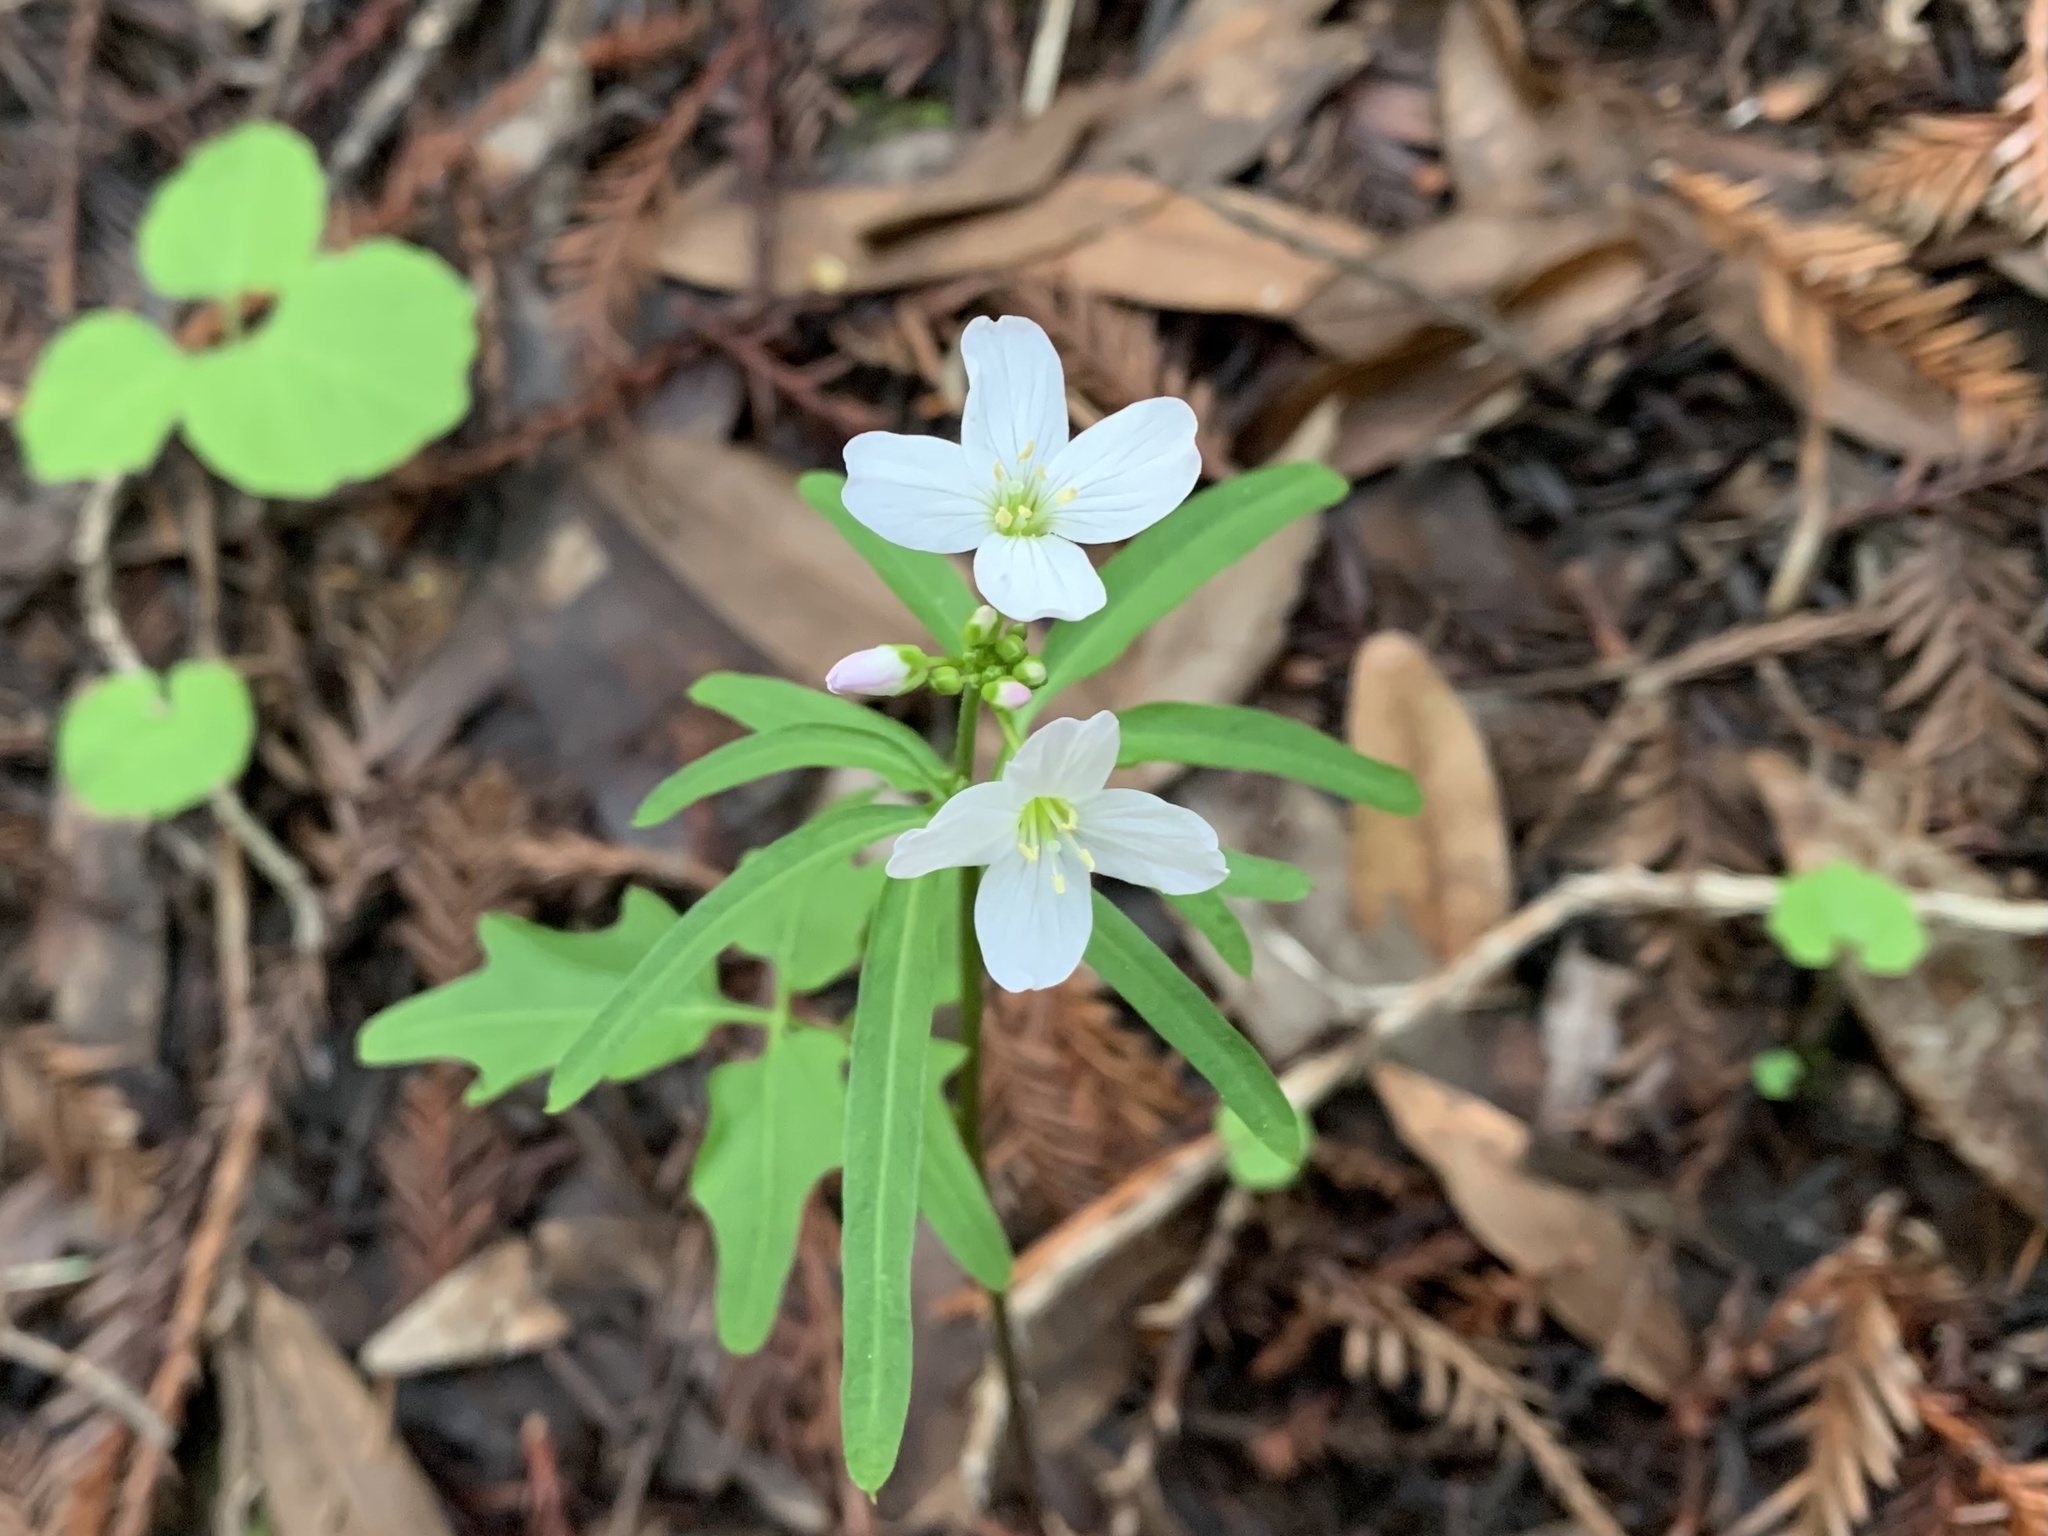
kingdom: Plantae
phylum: Tracheophyta
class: Magnoliopsida
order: Brassicales
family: Brassicaceae
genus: Cardamine
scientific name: Cardamine californica
